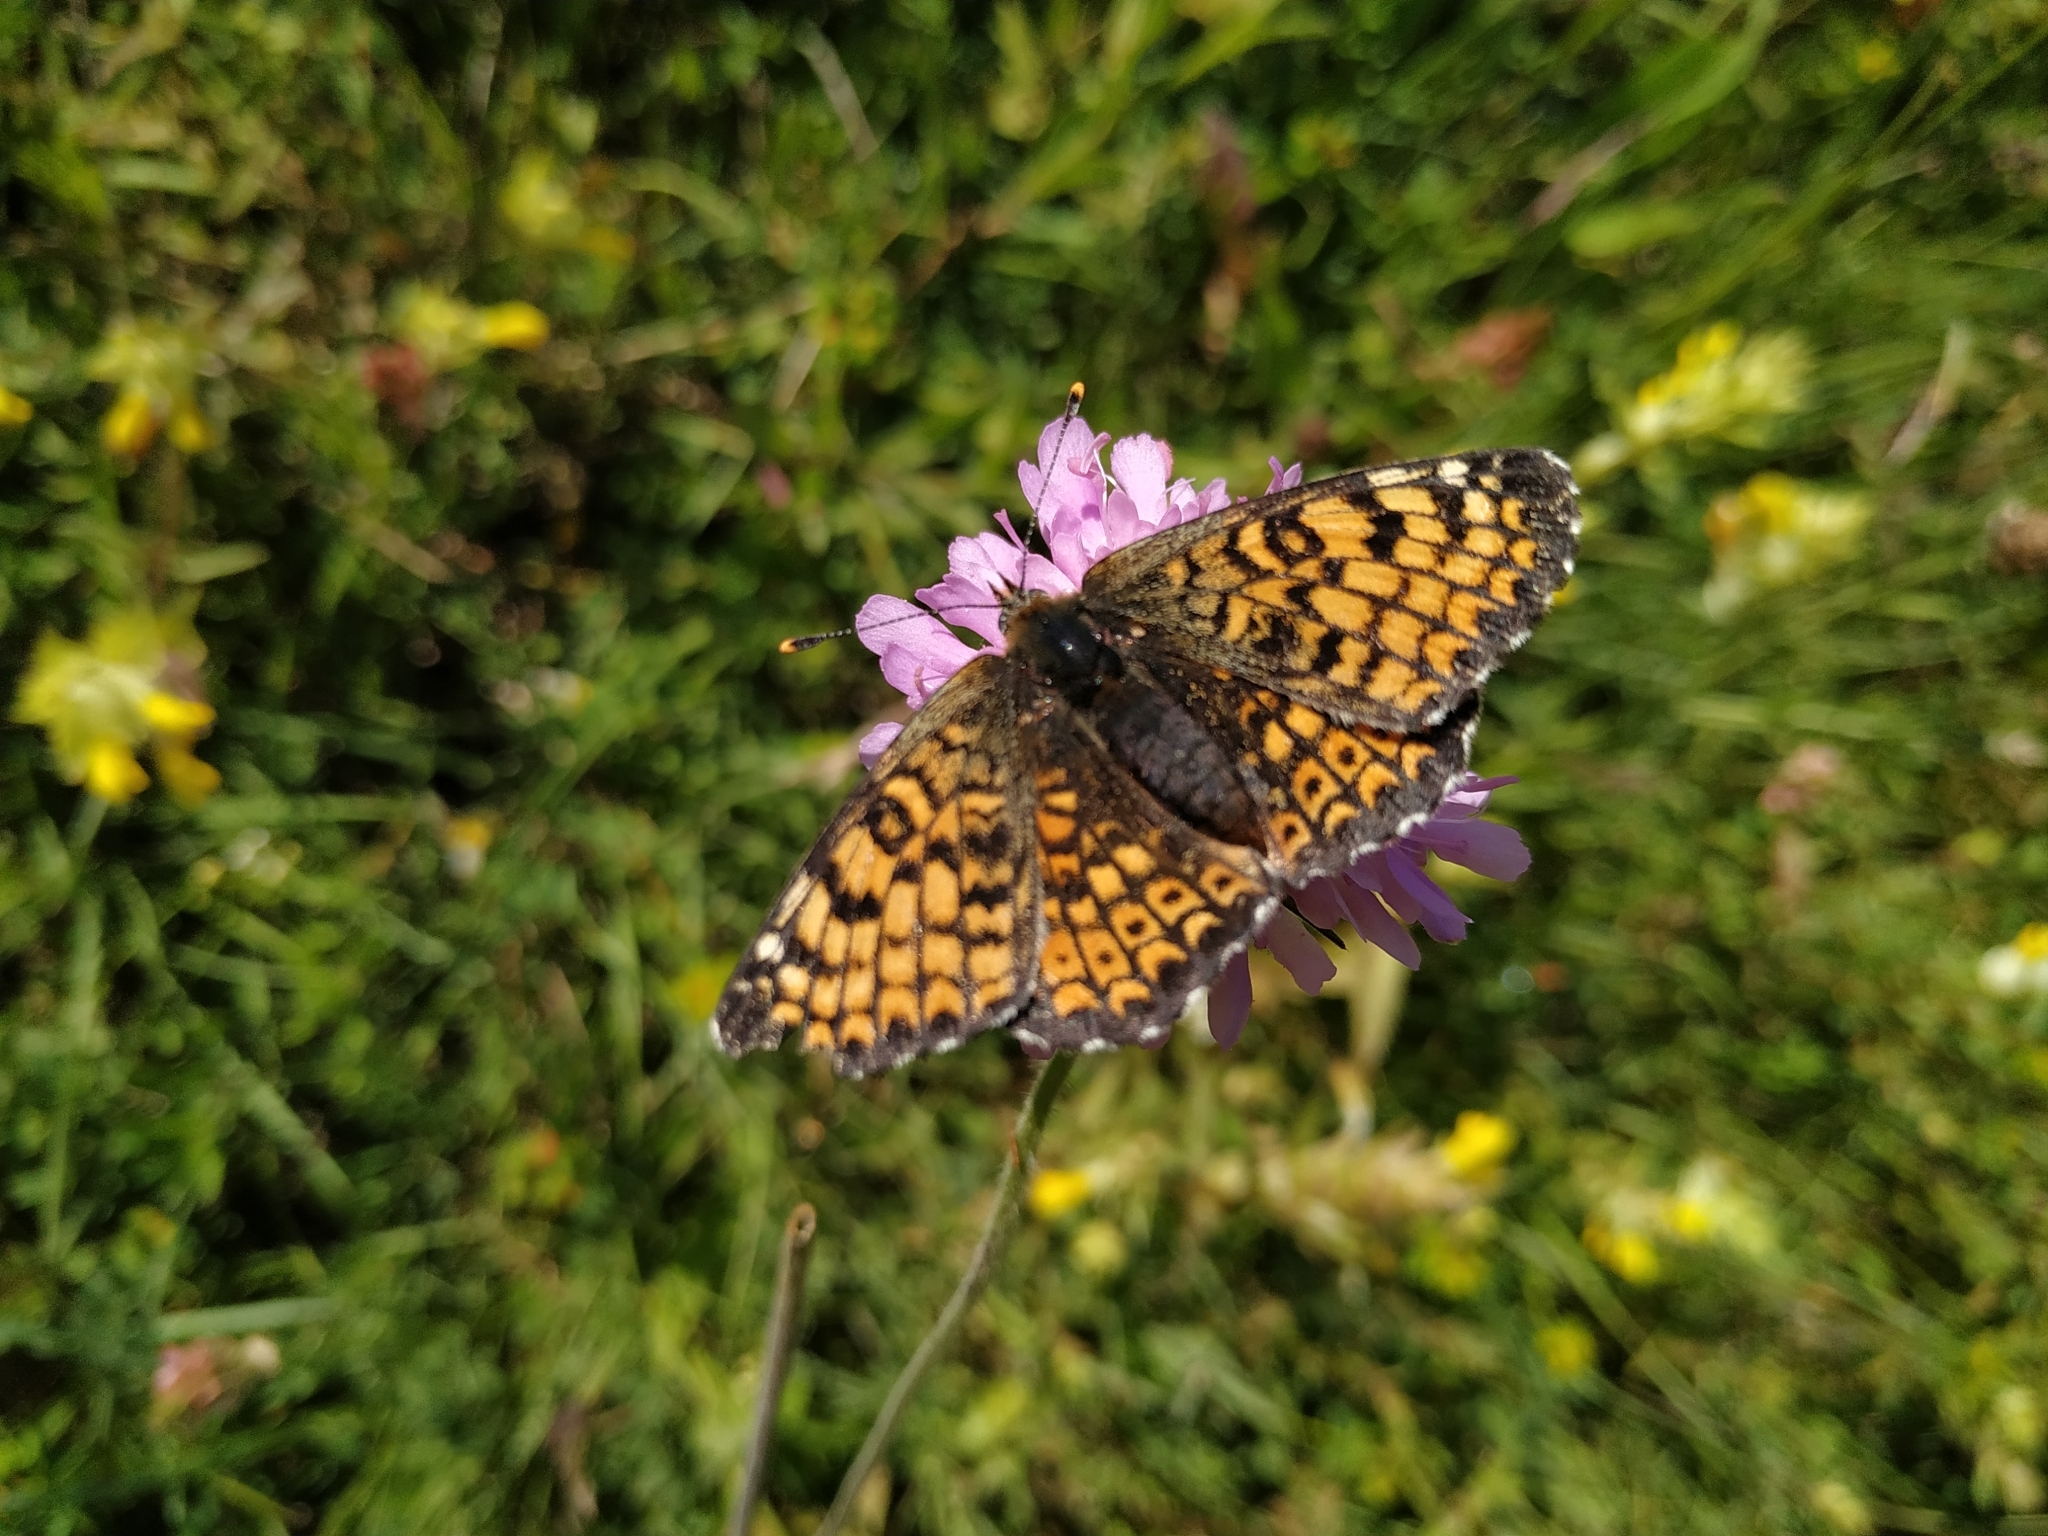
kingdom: Animalia
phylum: Arthropoda
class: Insecta
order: Lepidoptera
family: Nymphalidae
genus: Melitaea
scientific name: Melitaea cinxia
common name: Glanville fritillary
